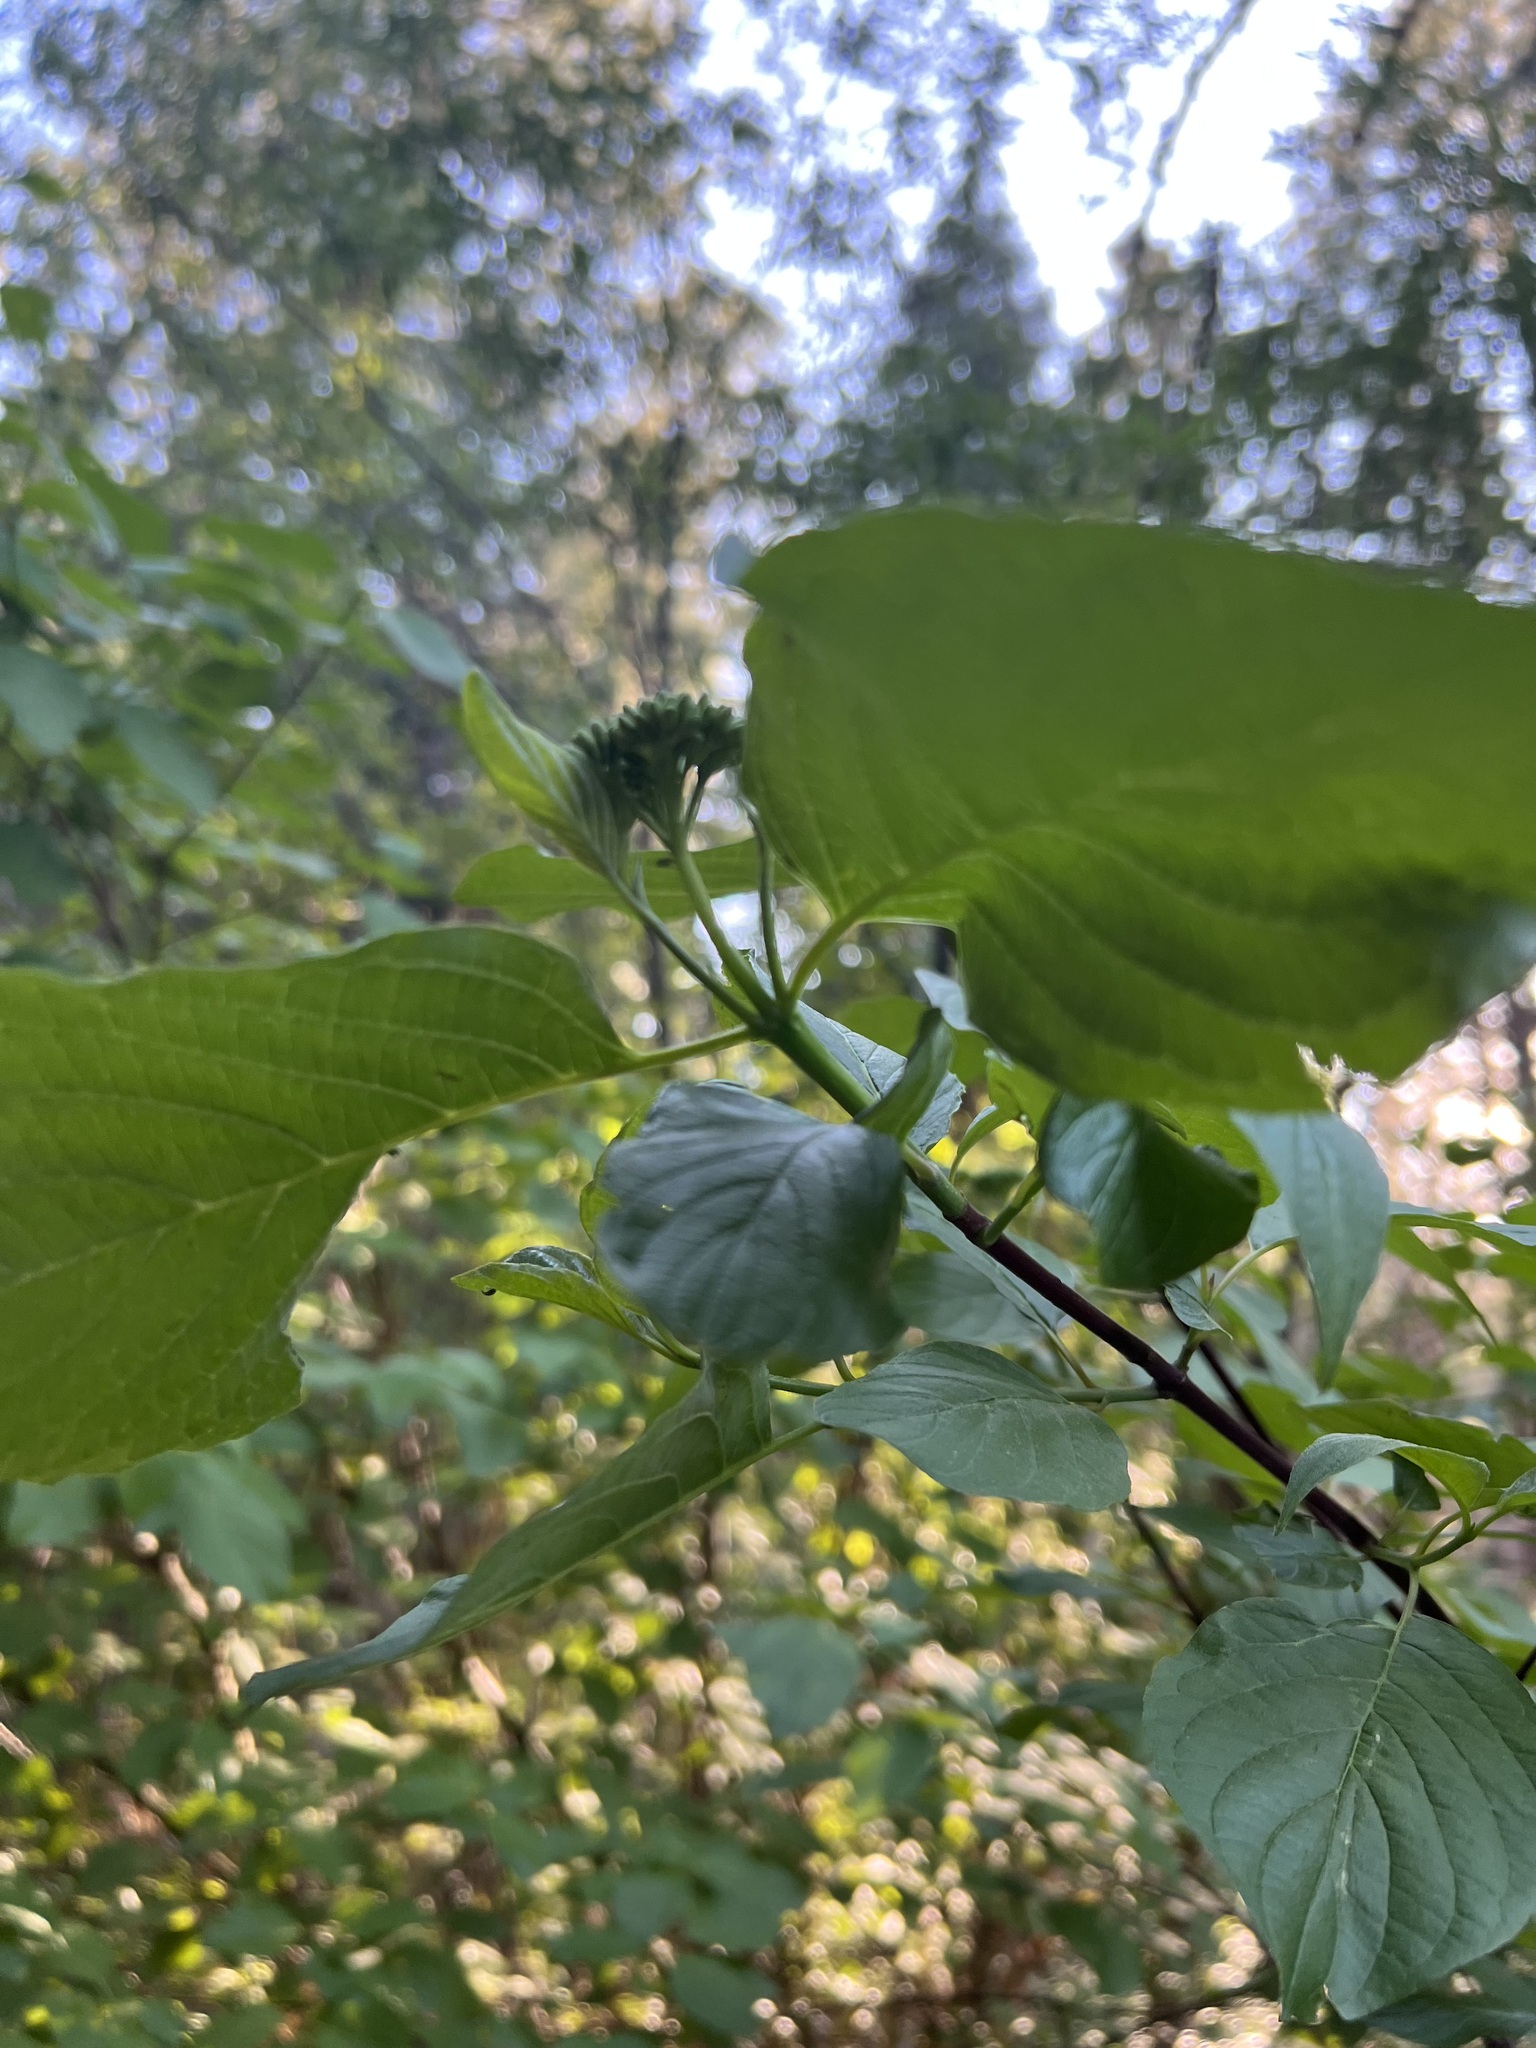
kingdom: Plantae
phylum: Tracheophyta
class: Magnoliopsida
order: Cornales
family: Cornaceae
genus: Cornus
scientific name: Cornus sericea
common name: Red-osier dogwood
